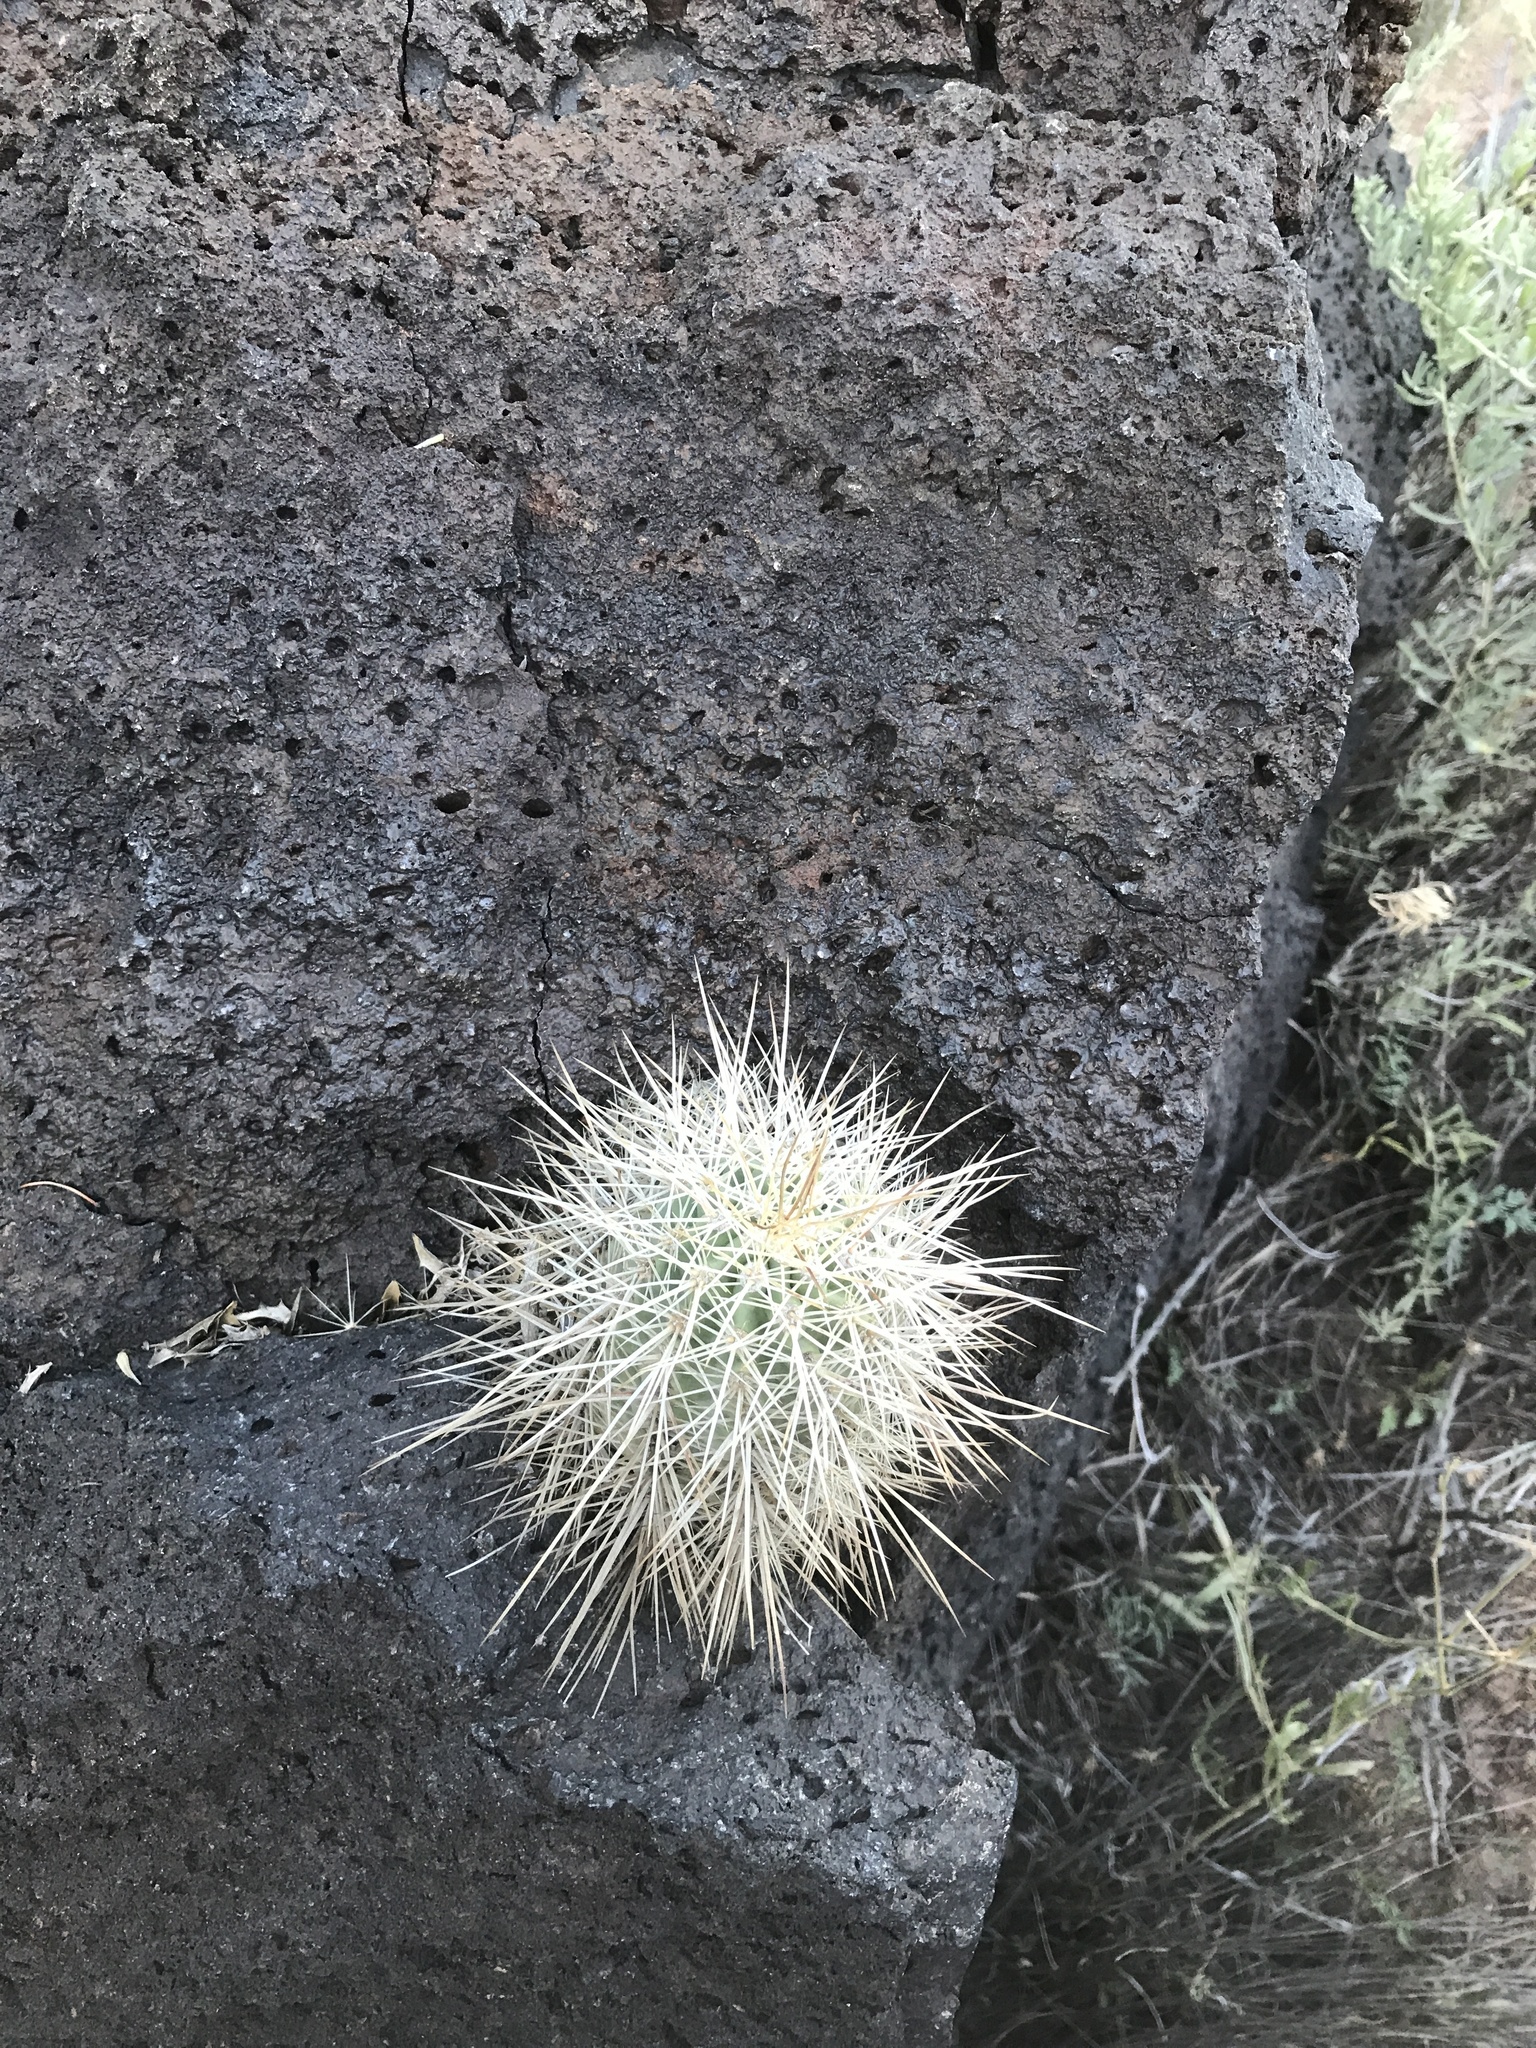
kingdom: Plantae
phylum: Tracheophyta
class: Magnoliopsida
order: Caryophyllales
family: Cactaceae
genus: Echinocereus
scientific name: Echinocereus coccineus
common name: Scarlet hedgehog cactus
